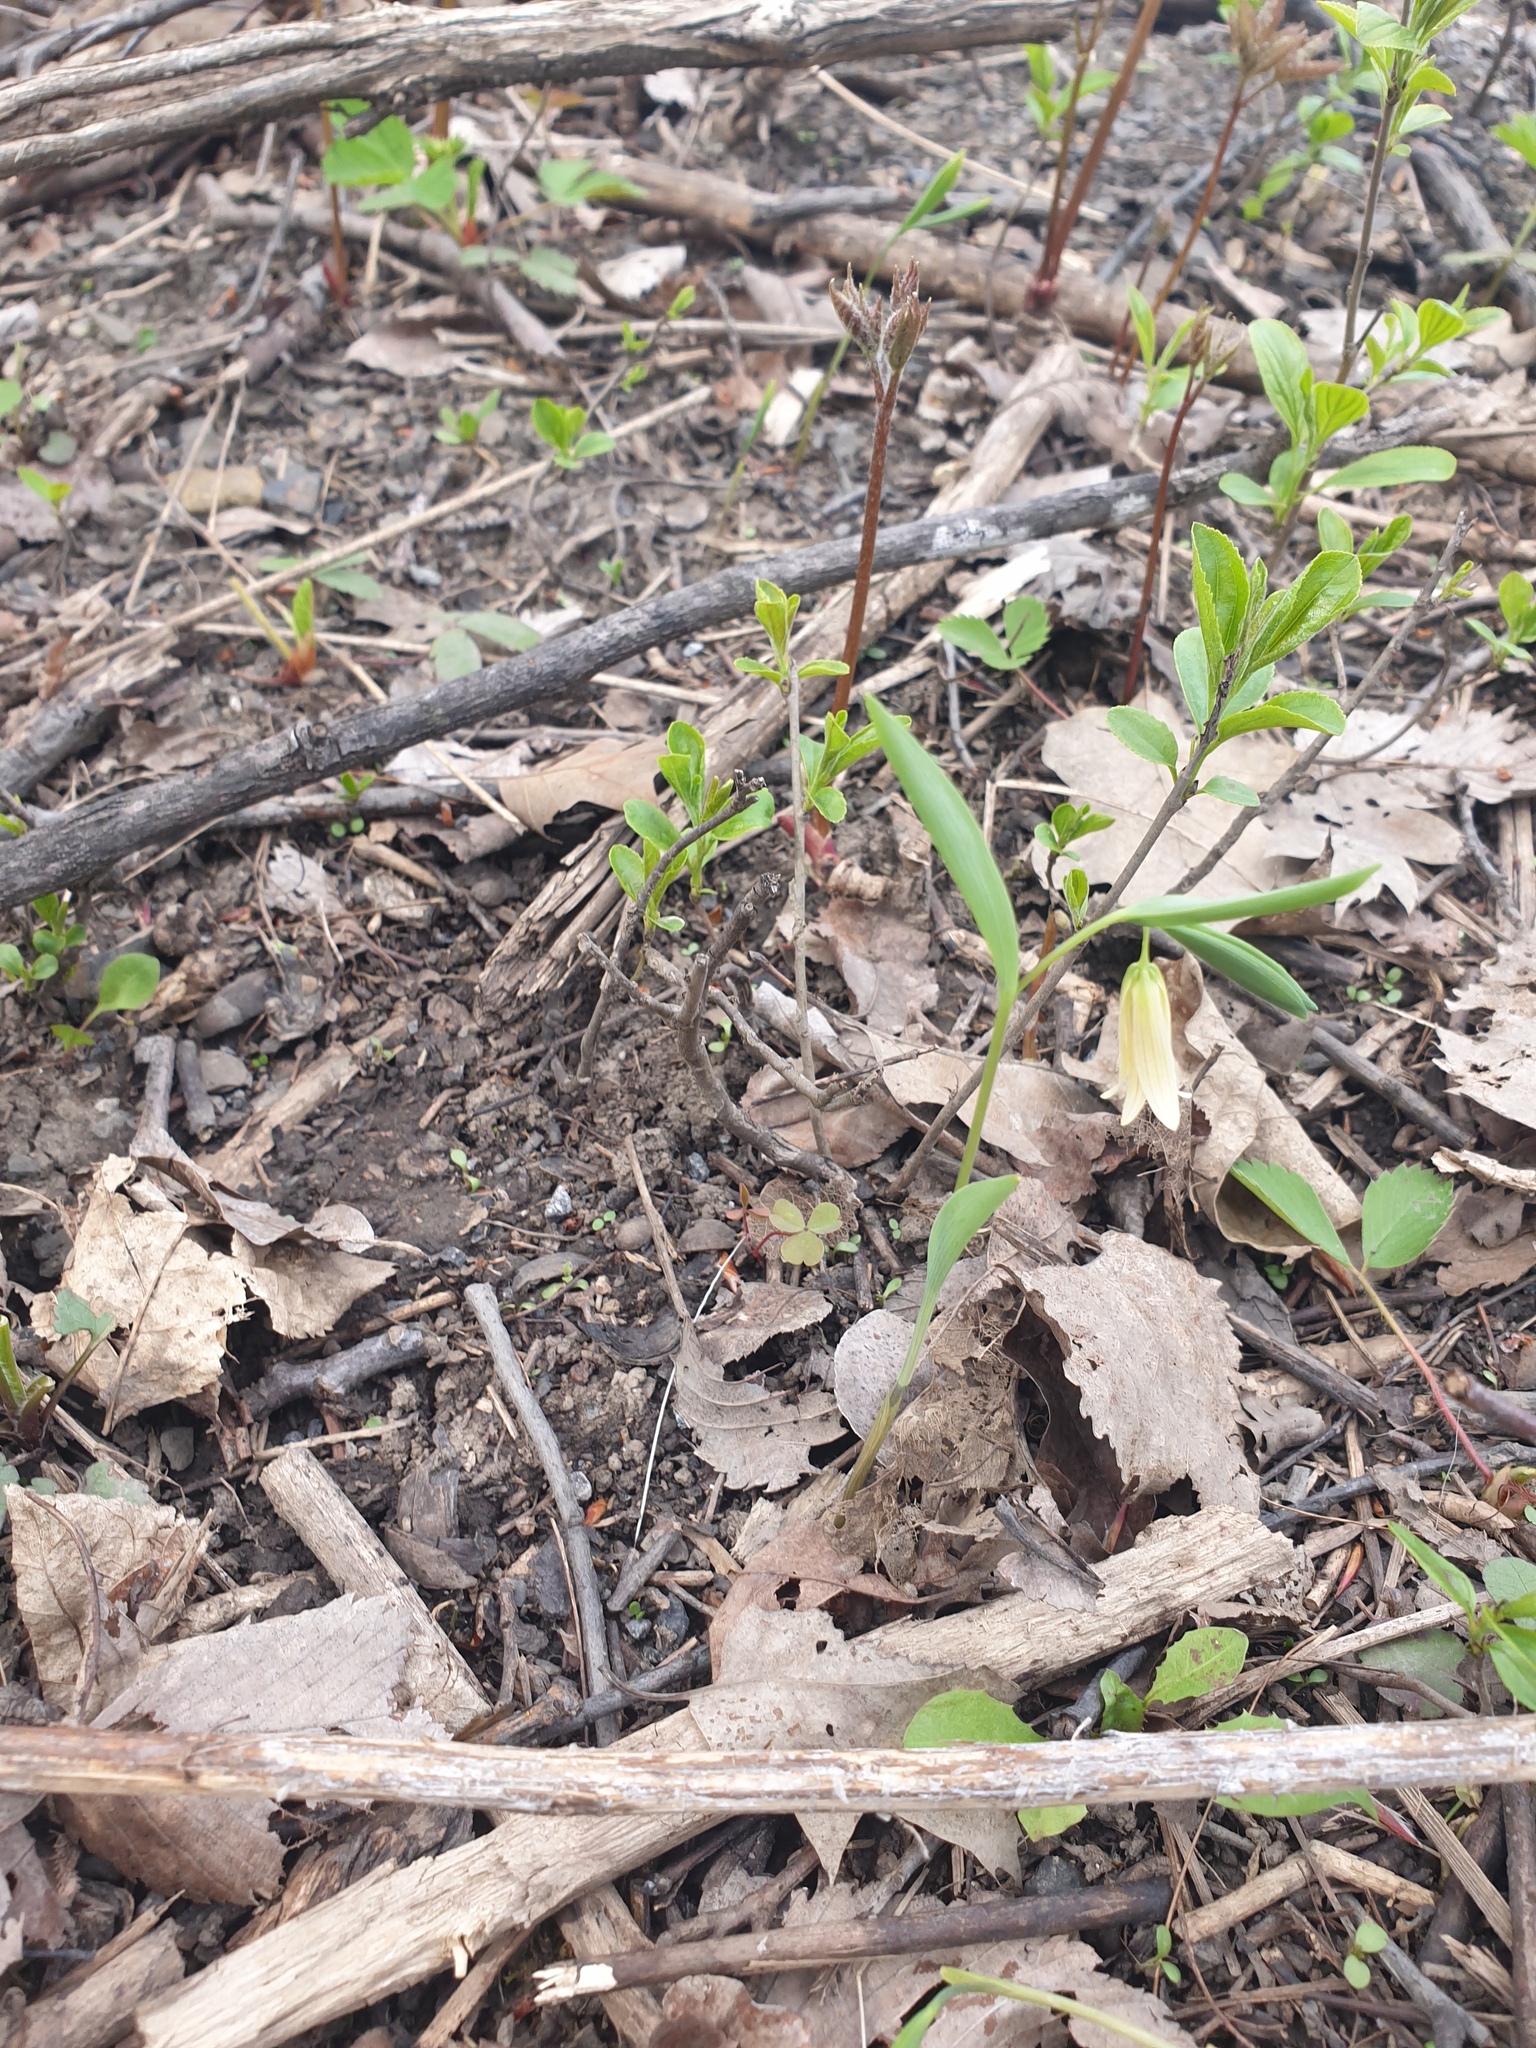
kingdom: Plantae
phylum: Tracheophyta
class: Liliopsida
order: Liliales
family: Colchicaceae
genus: Uvularia
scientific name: Uvularia sessilifolia
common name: Straw-lily
